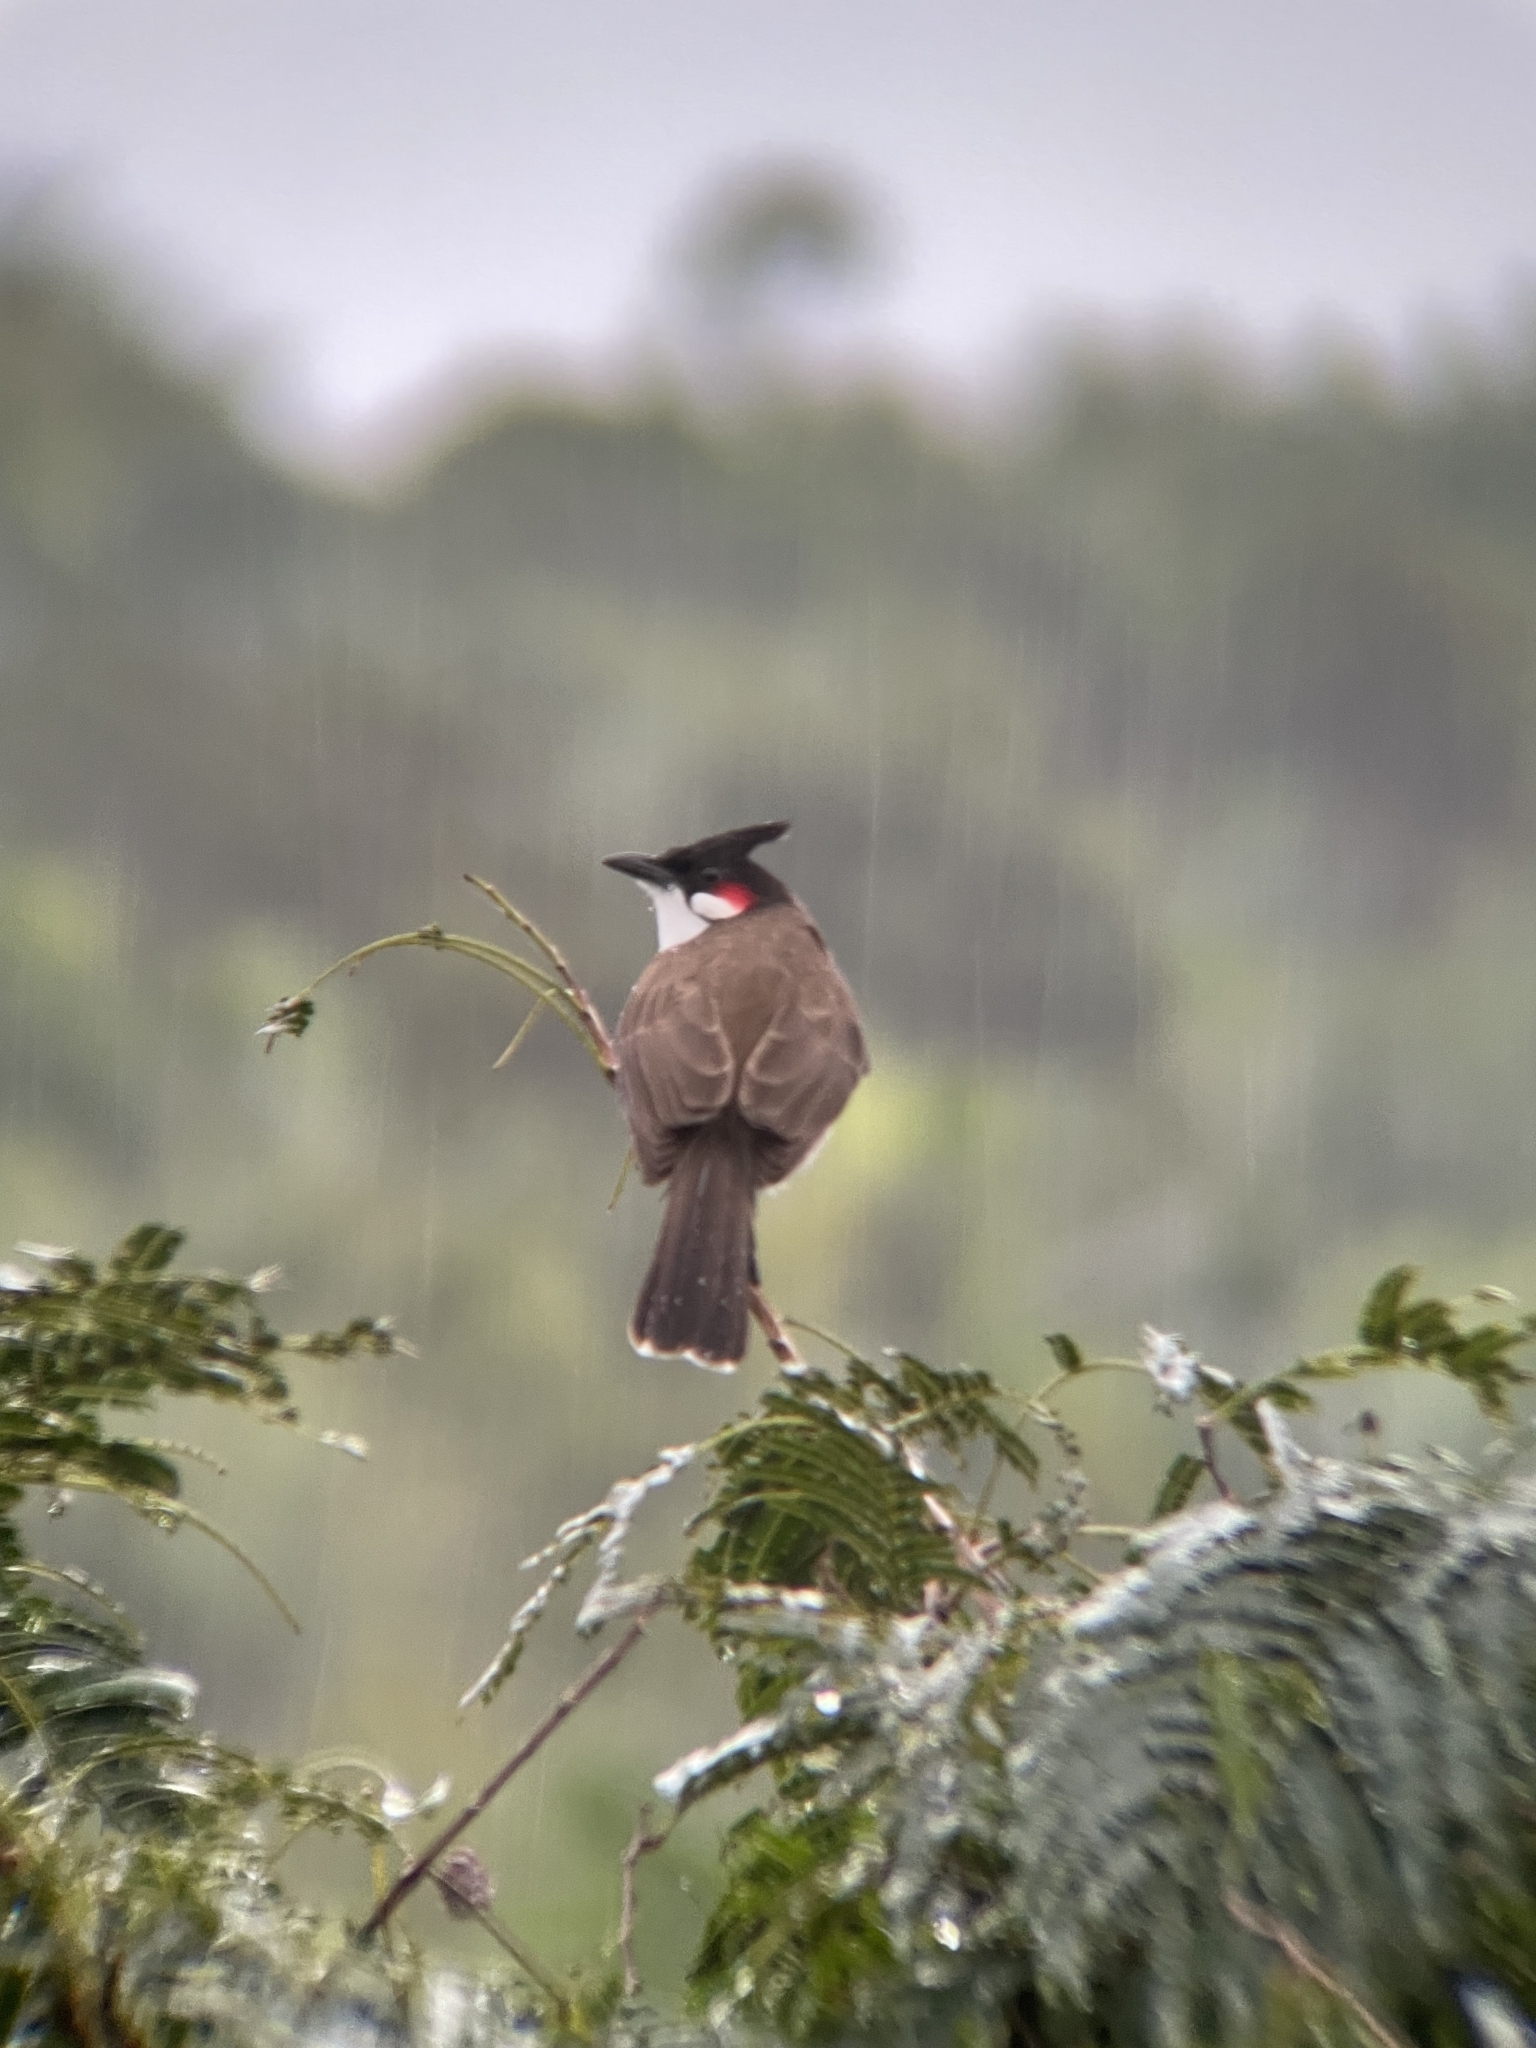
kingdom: Animalia
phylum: Chordata
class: Aves
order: Passeriformes
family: Pycnonotidae
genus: Pycnonotus
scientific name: Pycnonotus jocosus
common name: Red-whiskered bulbul
